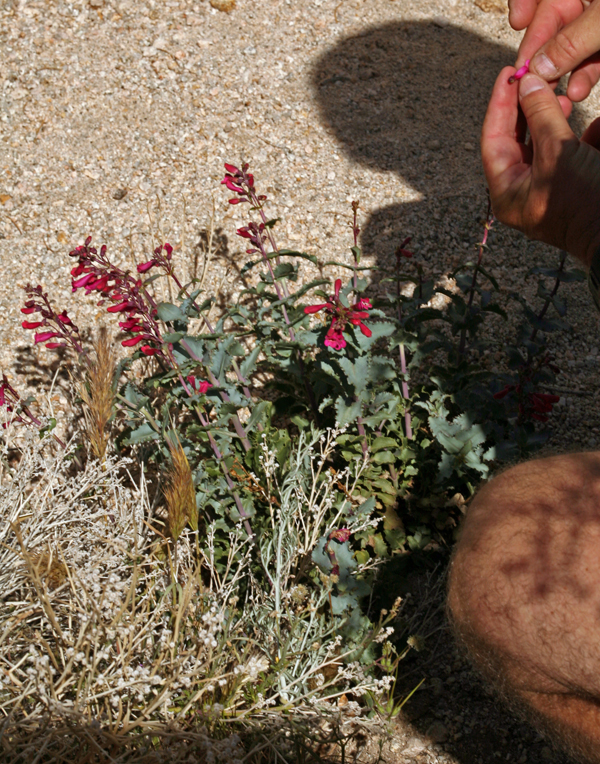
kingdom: Plantae
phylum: Tracheophyta
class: Magnoliopsida
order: Lamiales
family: Plantaginaceae
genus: Penstemon
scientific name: Penstemon pseudospectabilis
